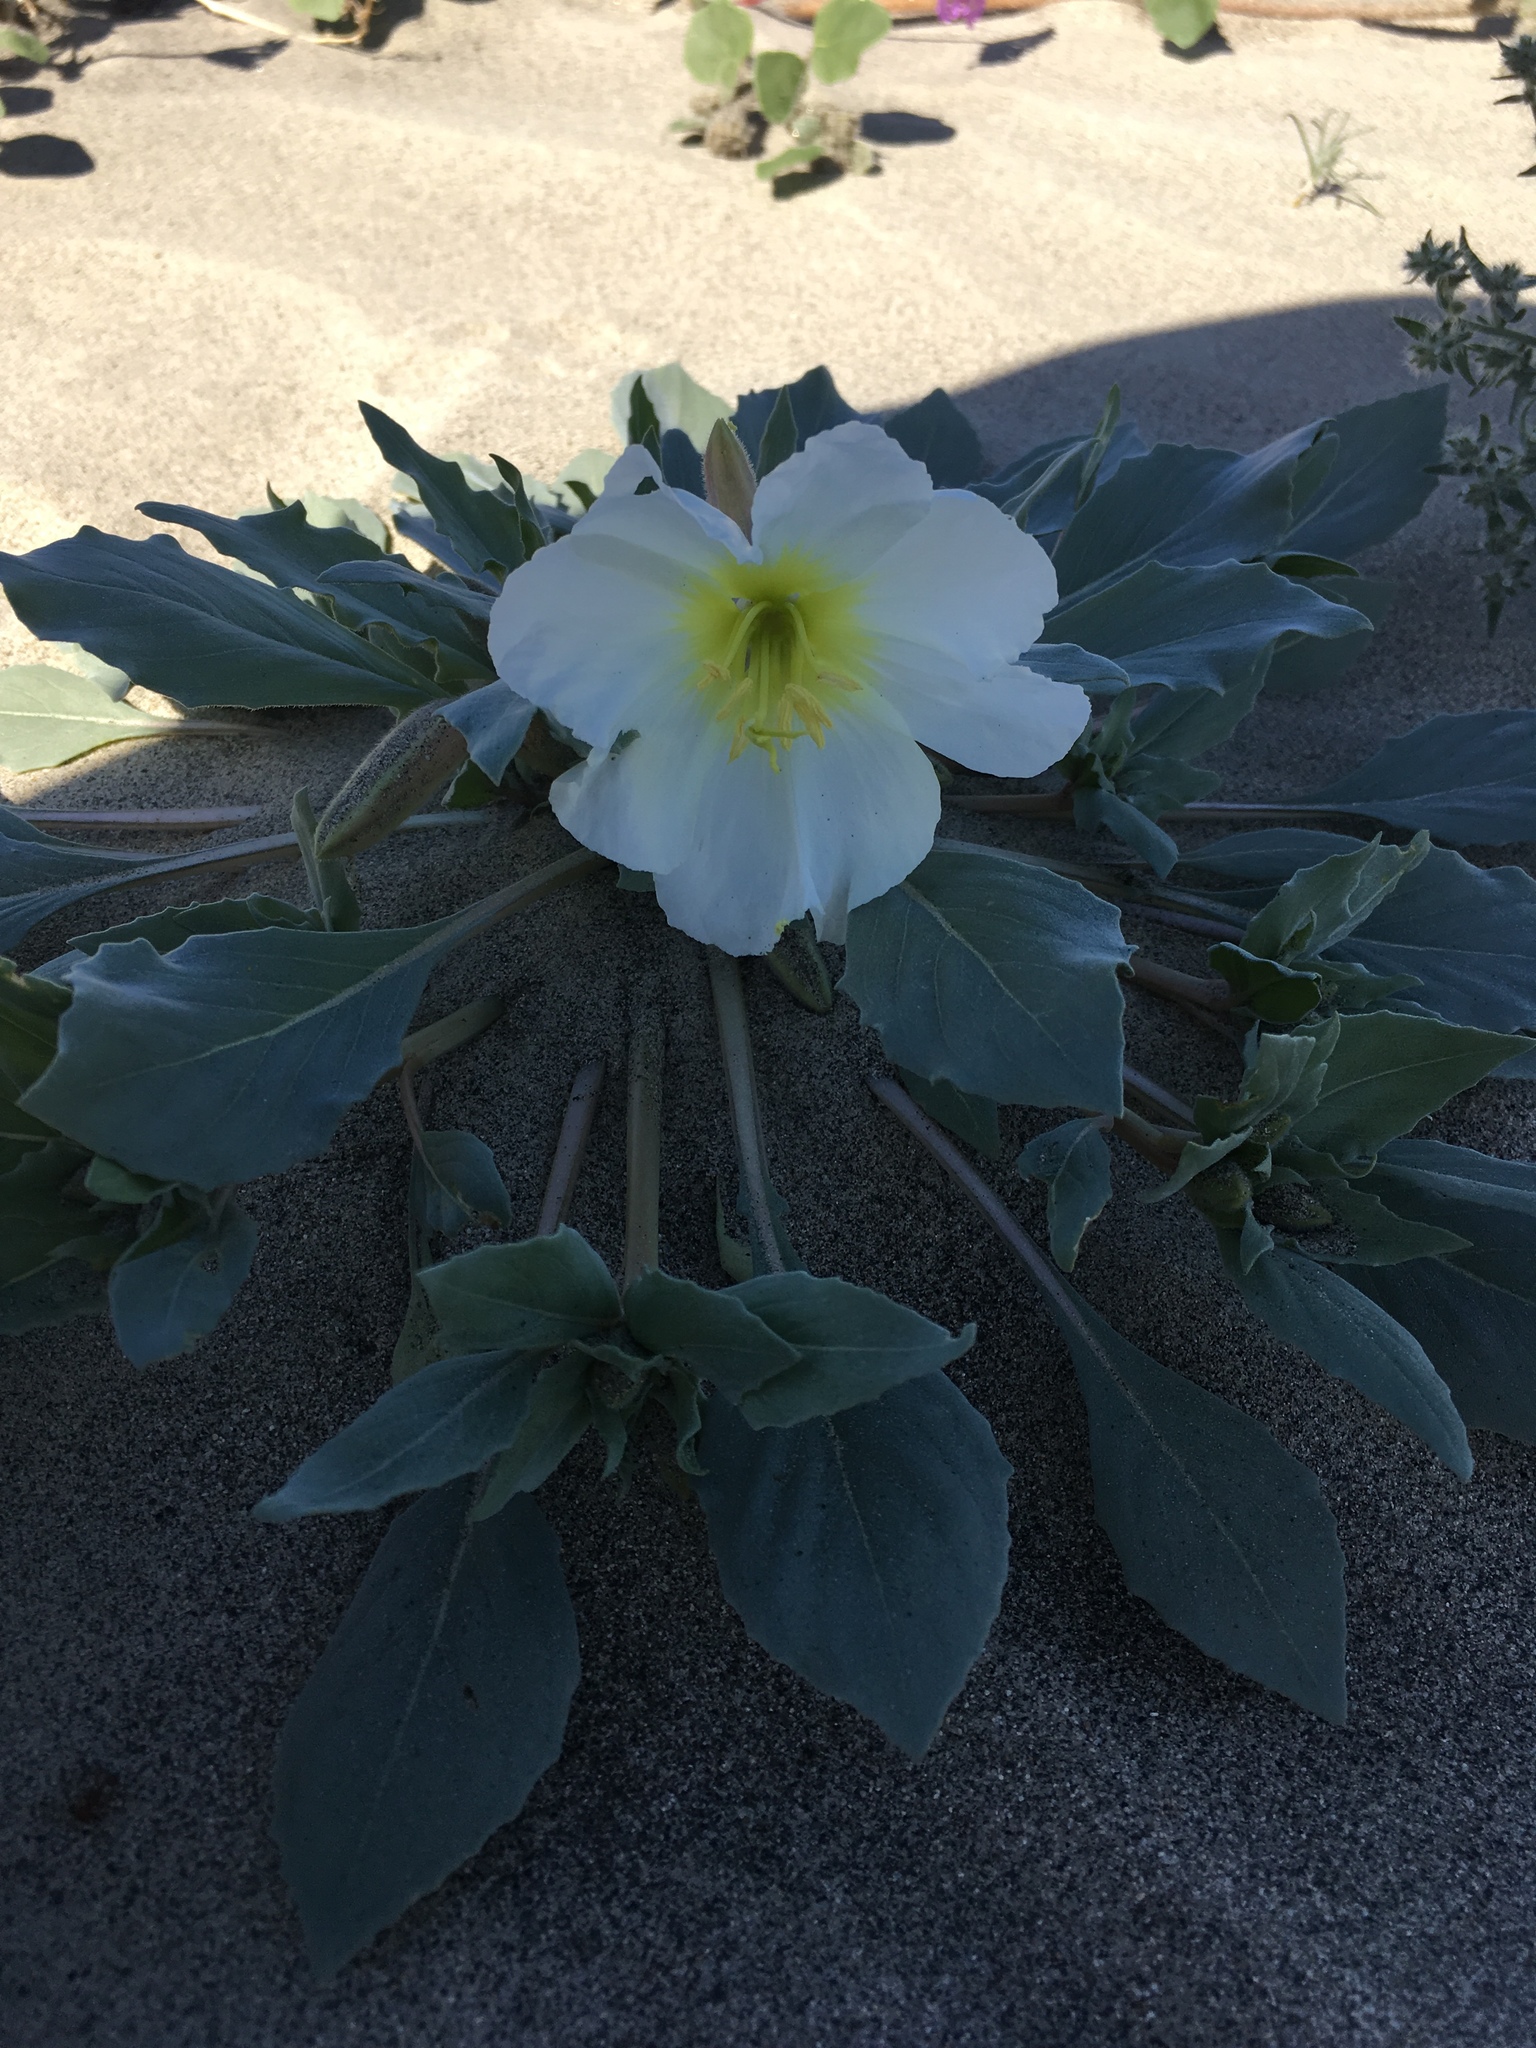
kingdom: Plantae
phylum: Tracheophyta
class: Magnoliopsida
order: Myrtales
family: Onagraceae
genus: Oenothera
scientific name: Oenothera deltoides
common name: Basket evening-primrose
